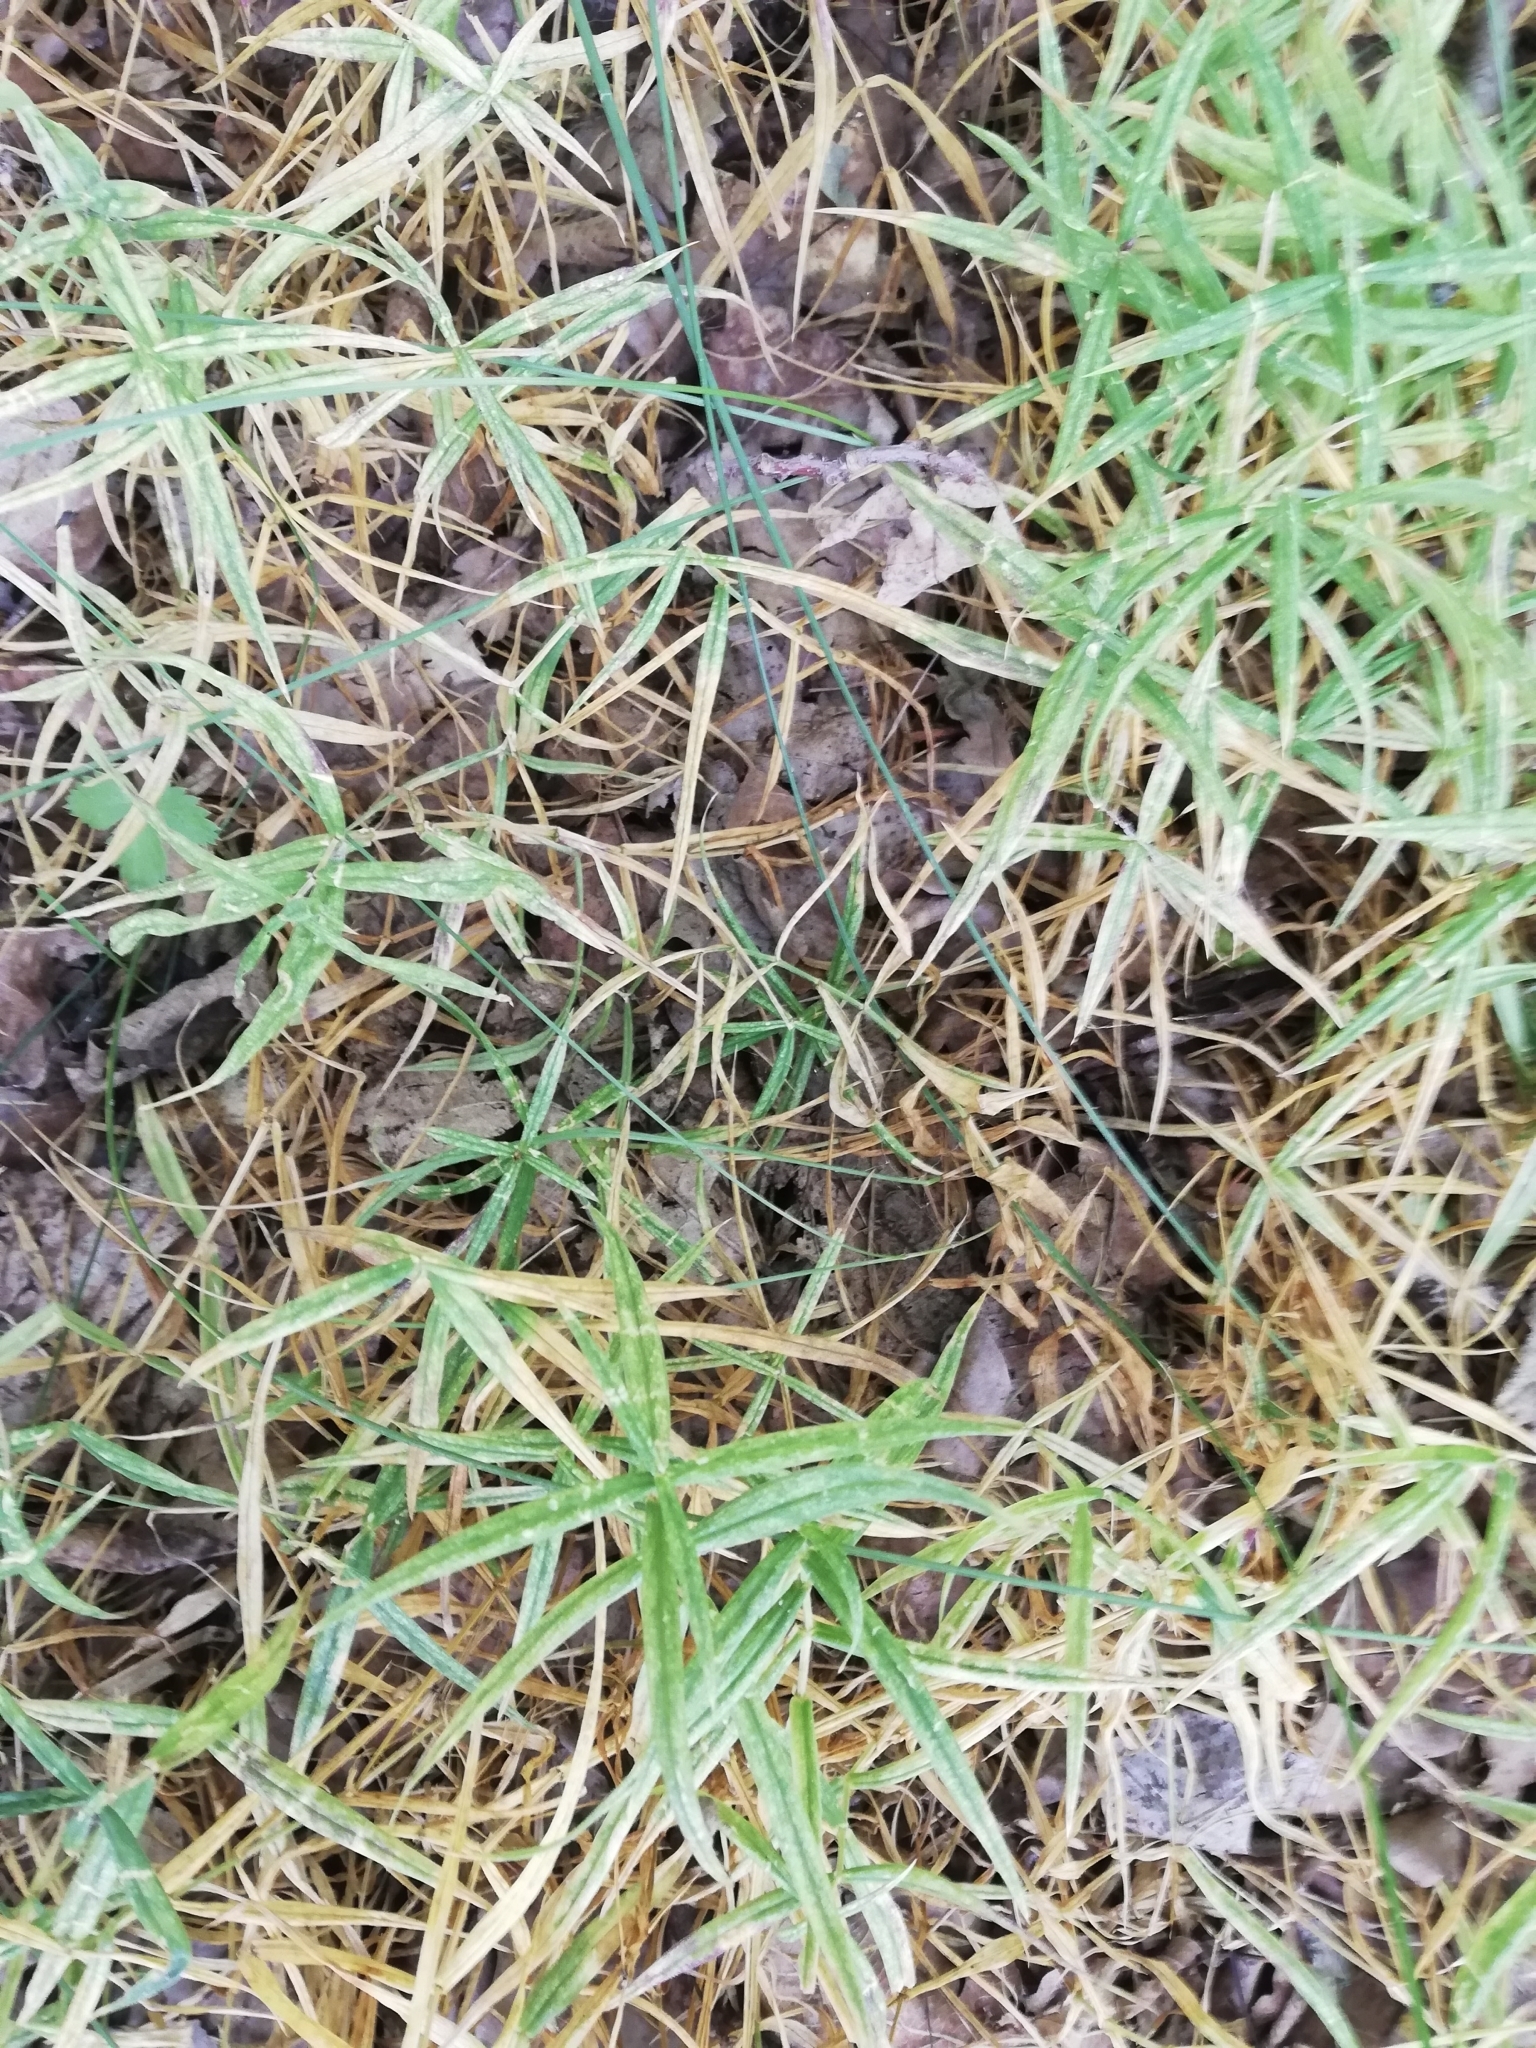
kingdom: Plantae
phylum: Tracheophyta
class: Magnoliopsida
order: Caryophyllales
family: Caryophyllaceae
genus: Rabelera
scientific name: Rabelera holostea
